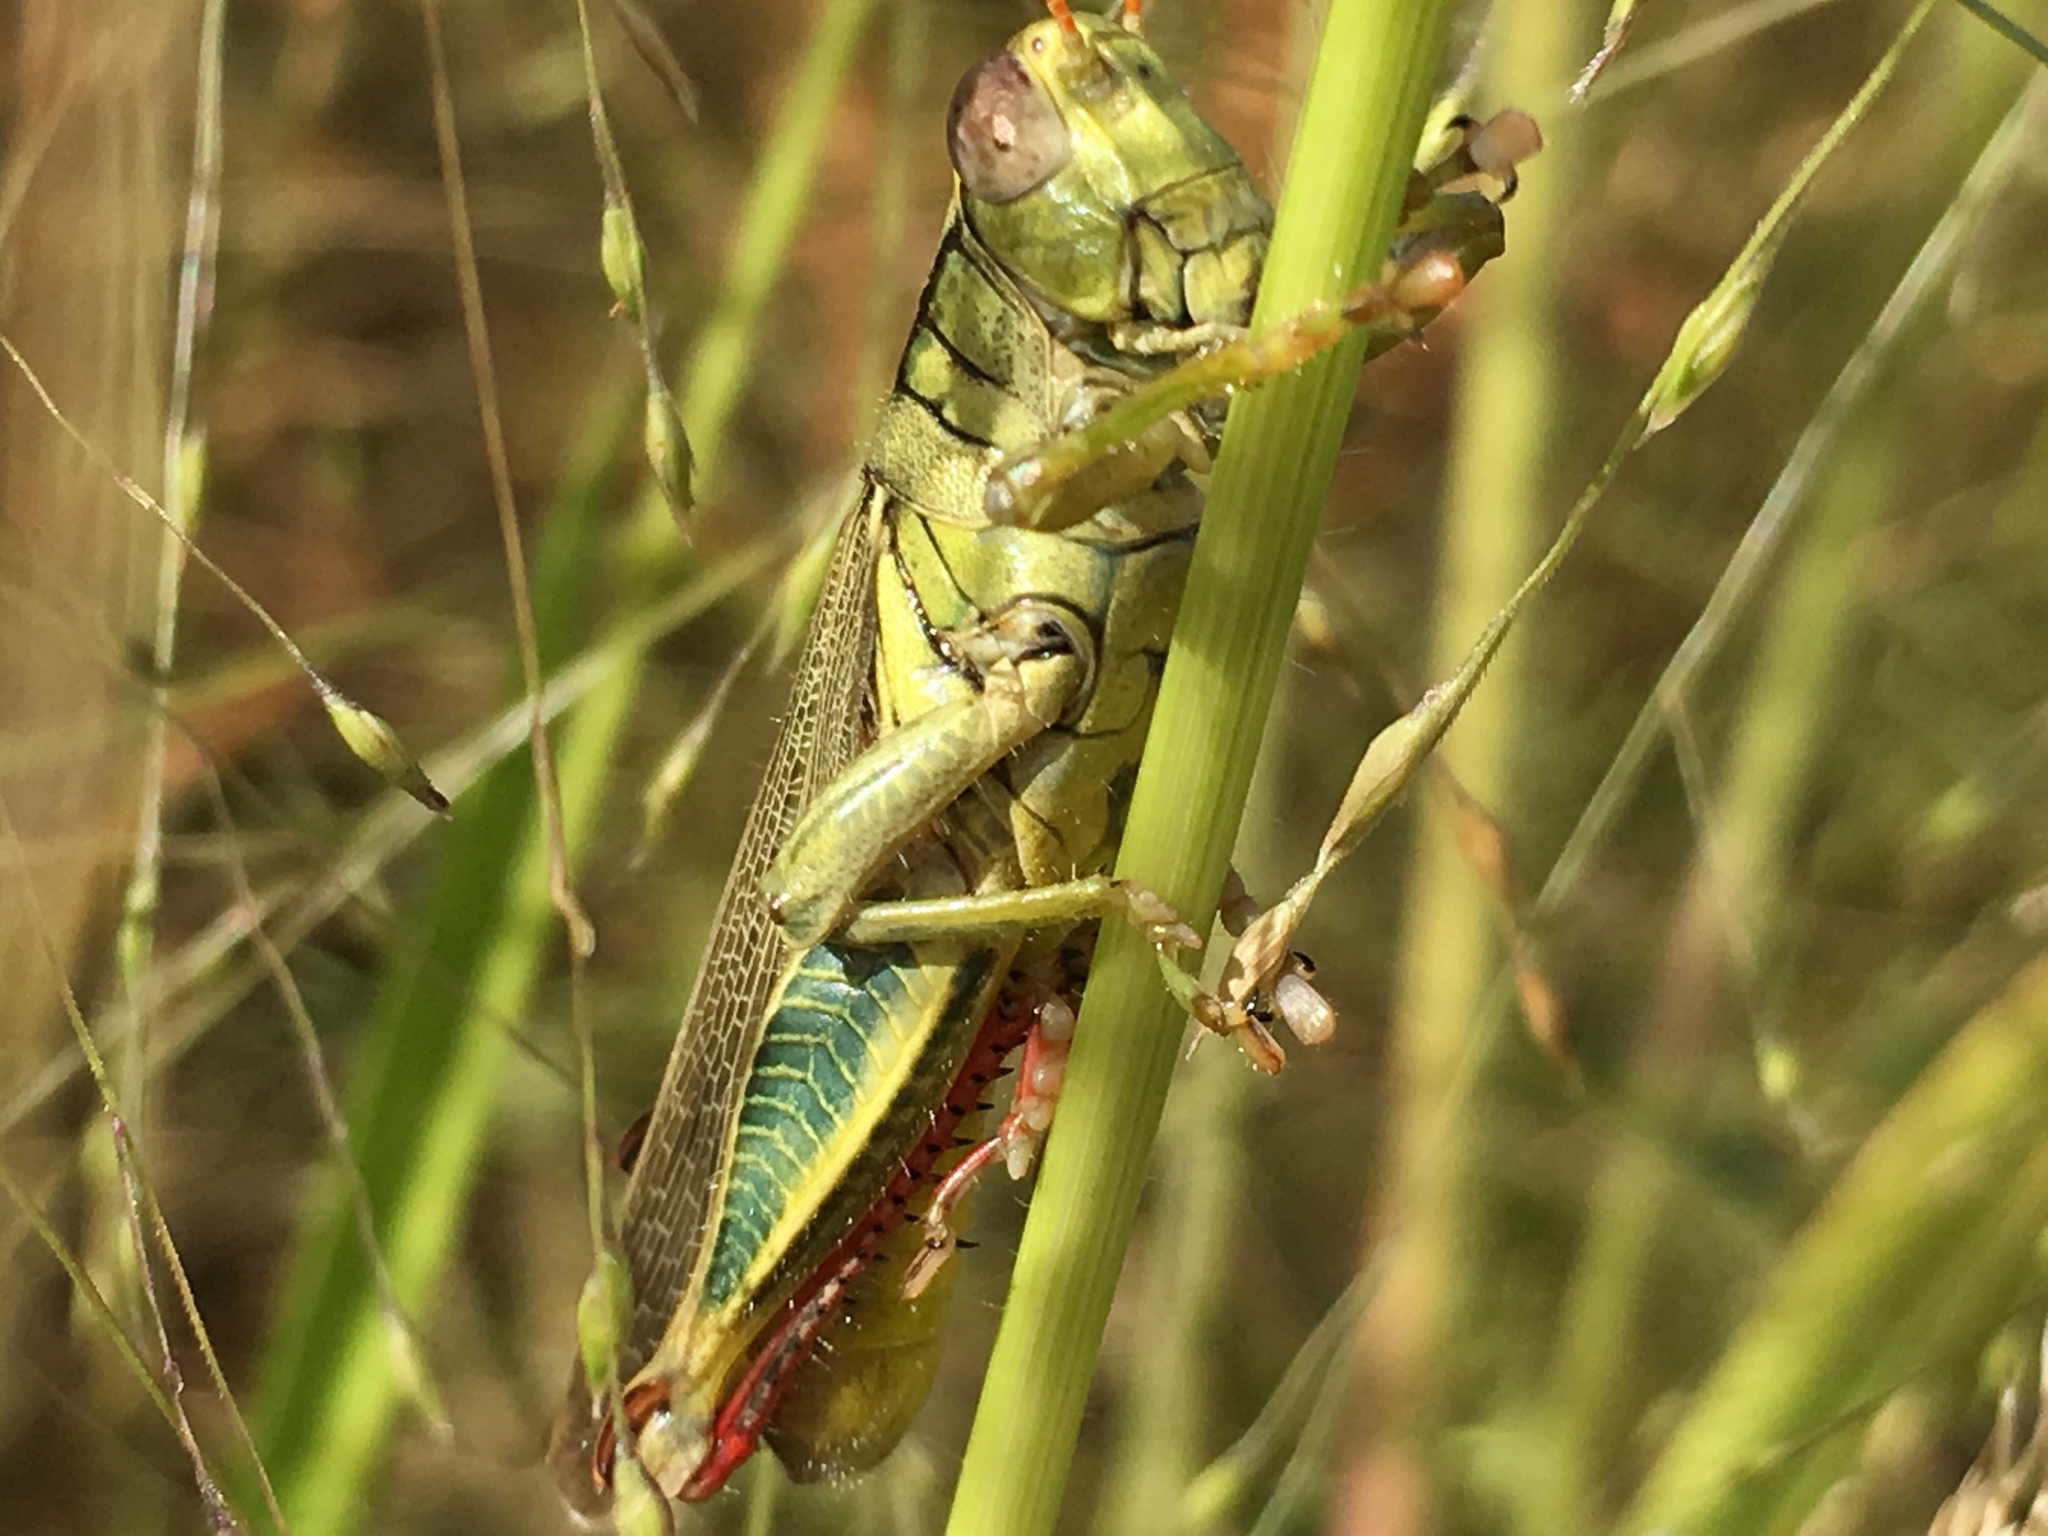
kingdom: Animalia
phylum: Arthropoda
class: Insecta
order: Orthoptera
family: Acrididae
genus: Melanoplus
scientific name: Melanoplus yarrowii
